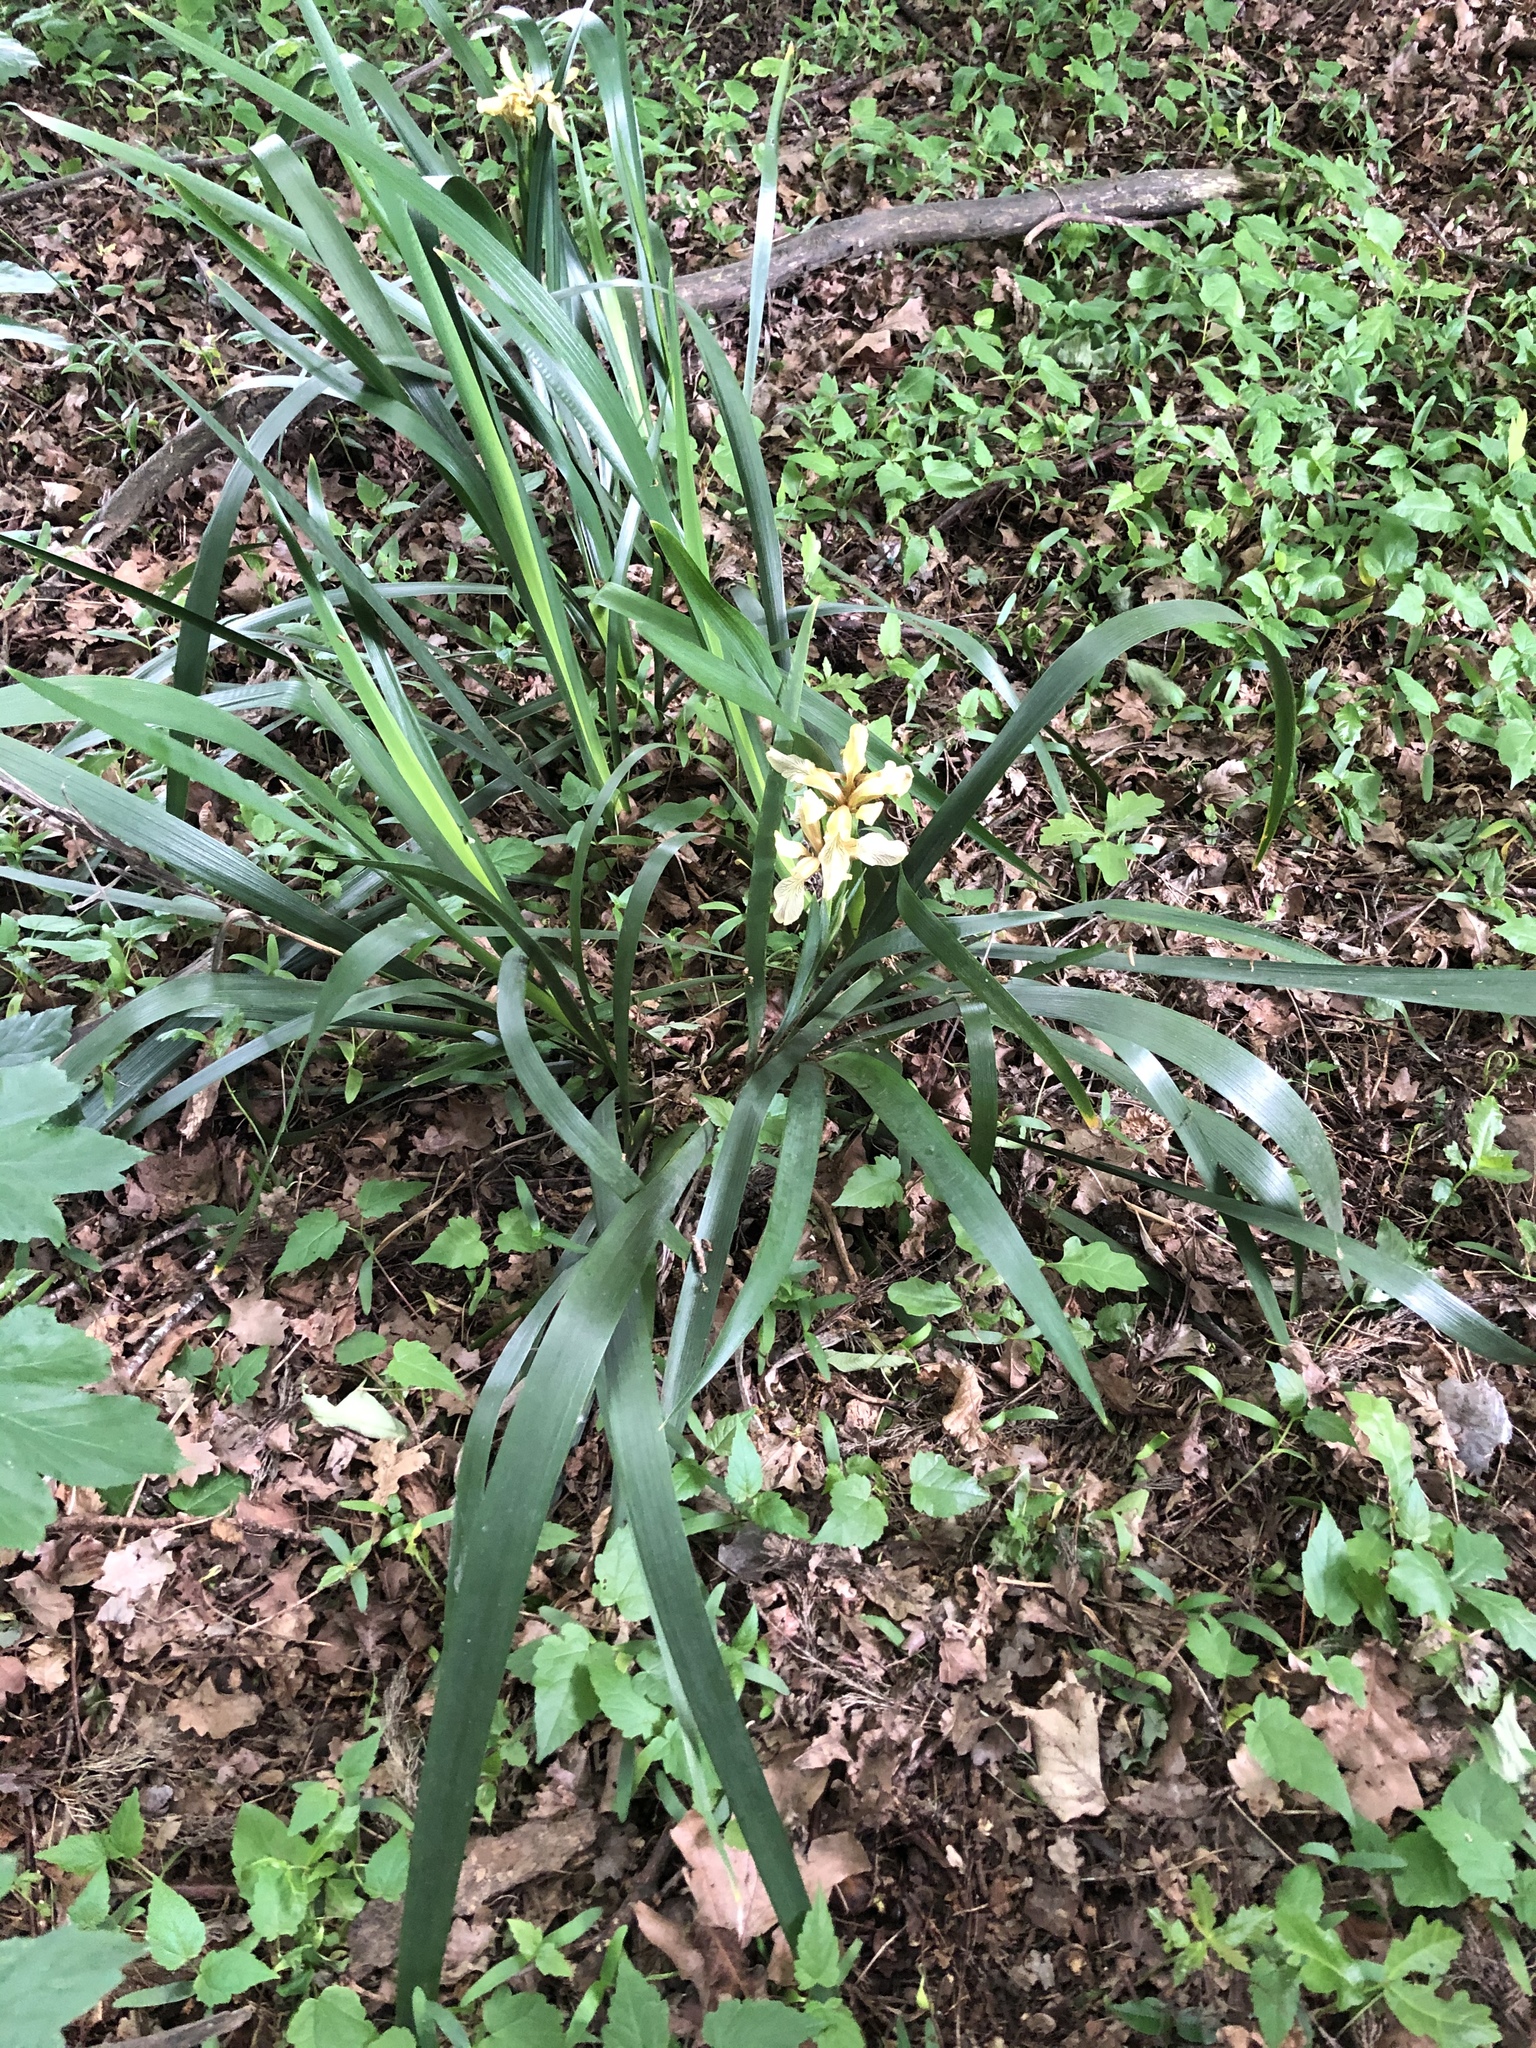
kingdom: Plantae
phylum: Tracheophyta
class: Liliopsida
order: Asparagales
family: Iridaceae
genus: Iris
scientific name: Iris foetidissima
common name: Stinking iris
